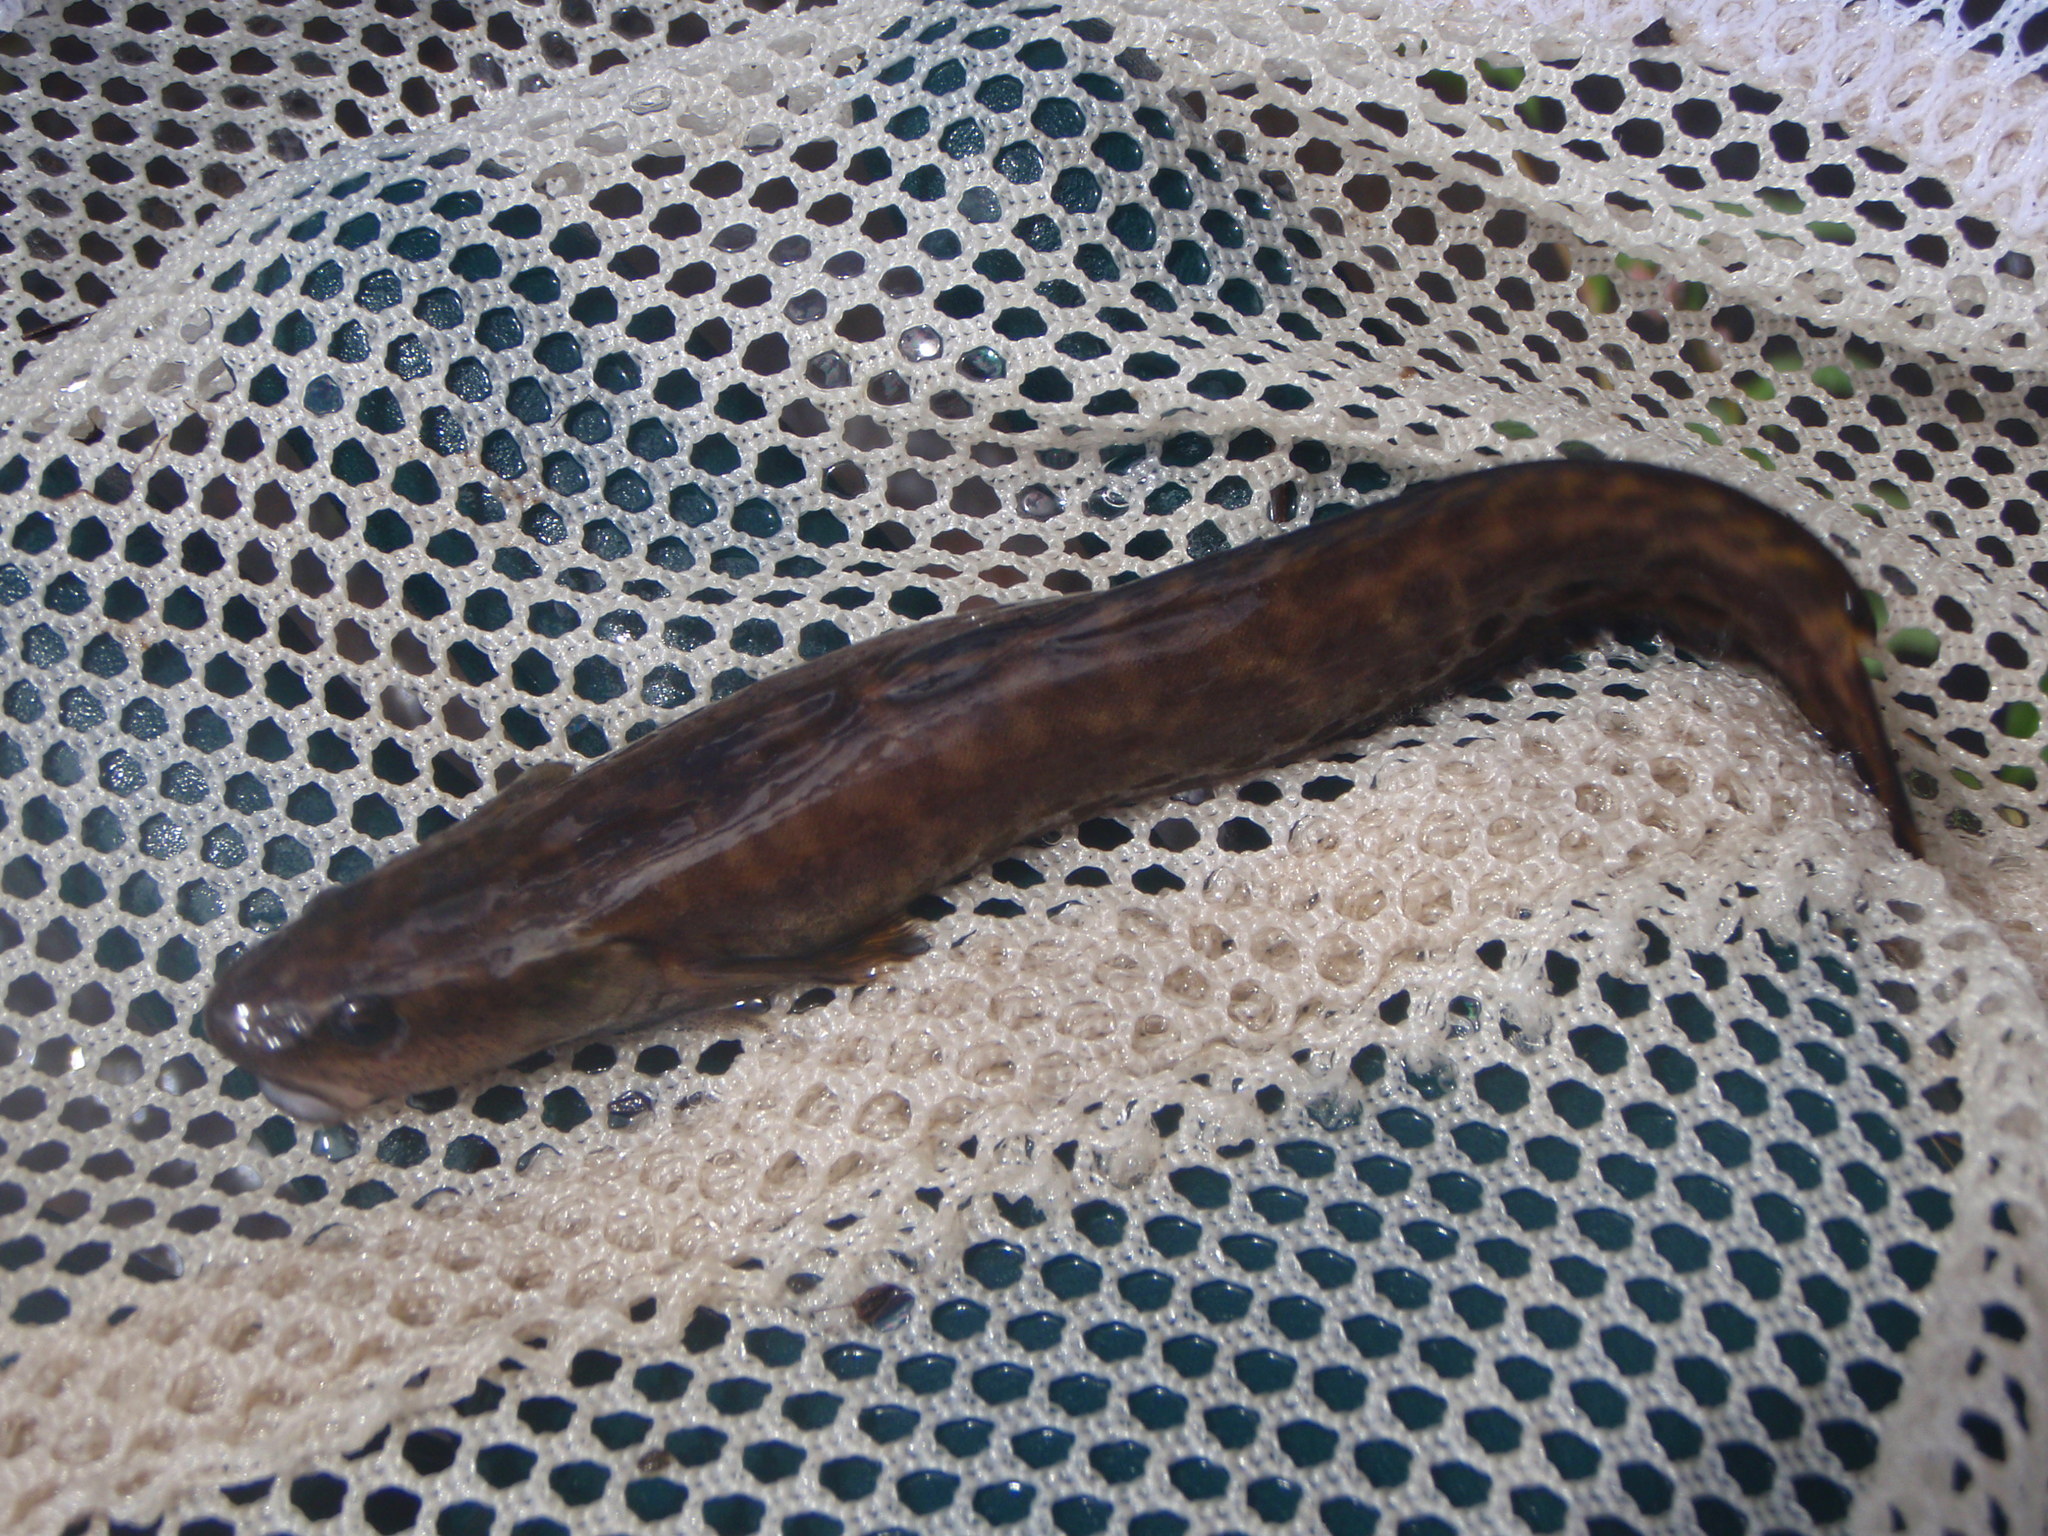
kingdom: Animalia
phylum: Chordata
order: Gadiformes
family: Lotidae
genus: Lota
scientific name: Lota lota
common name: Burbot
